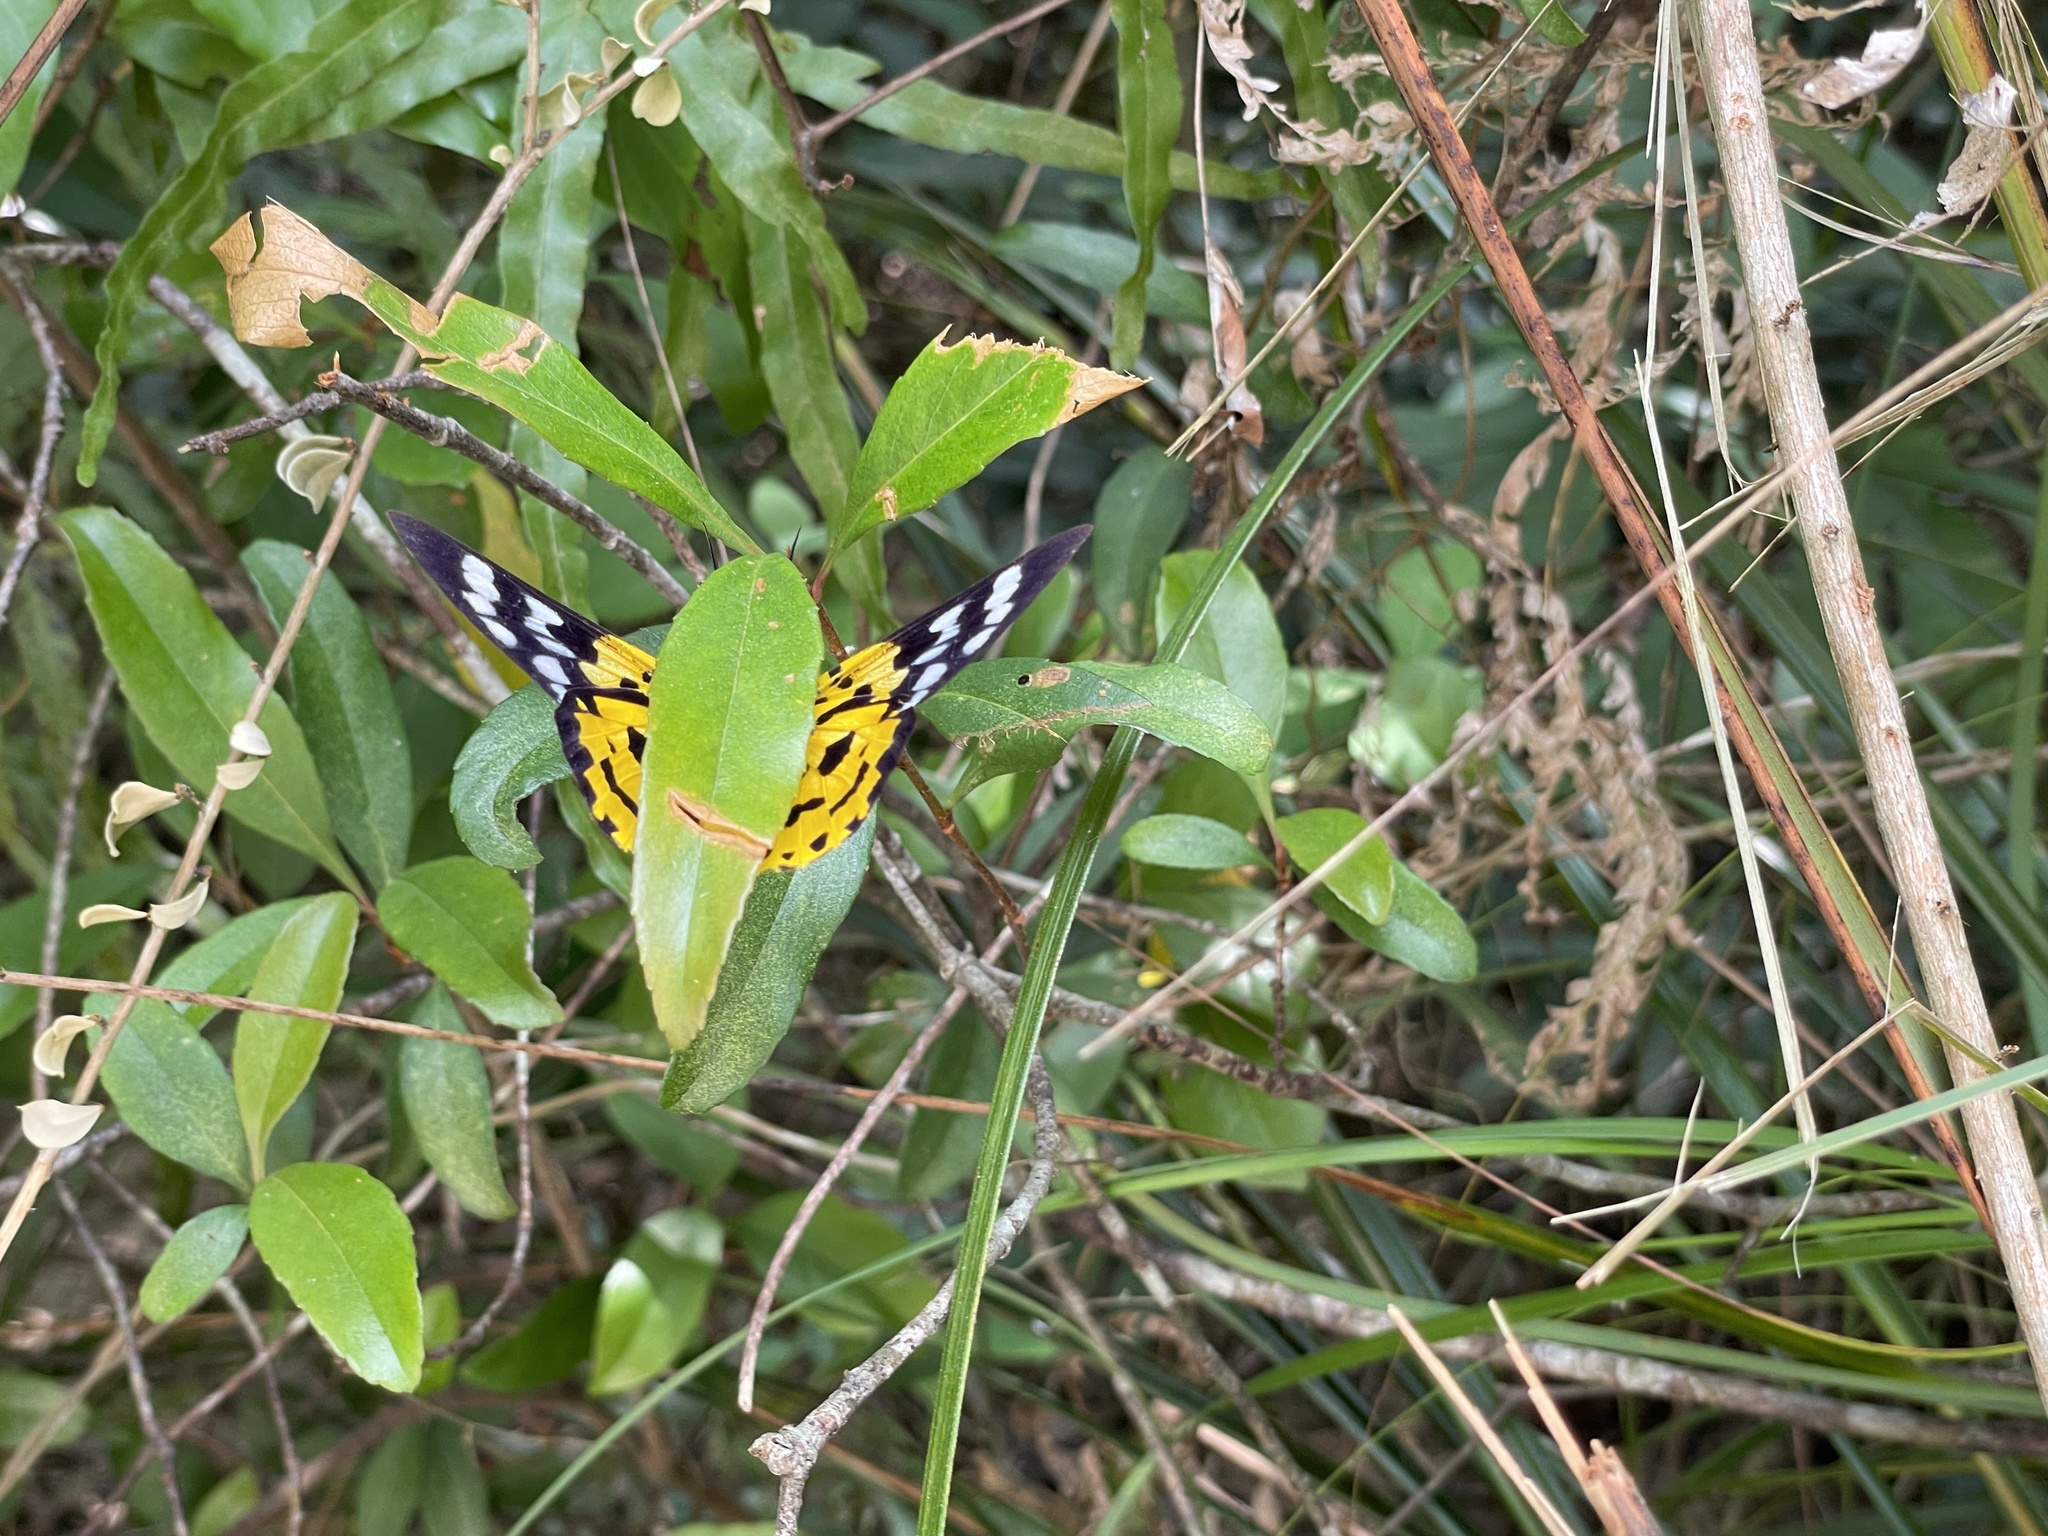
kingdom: Animalia
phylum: Arthropoda
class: Insecta
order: Lepidoptera
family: Geometridae
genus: Dysphania
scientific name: Dysphania militaris
